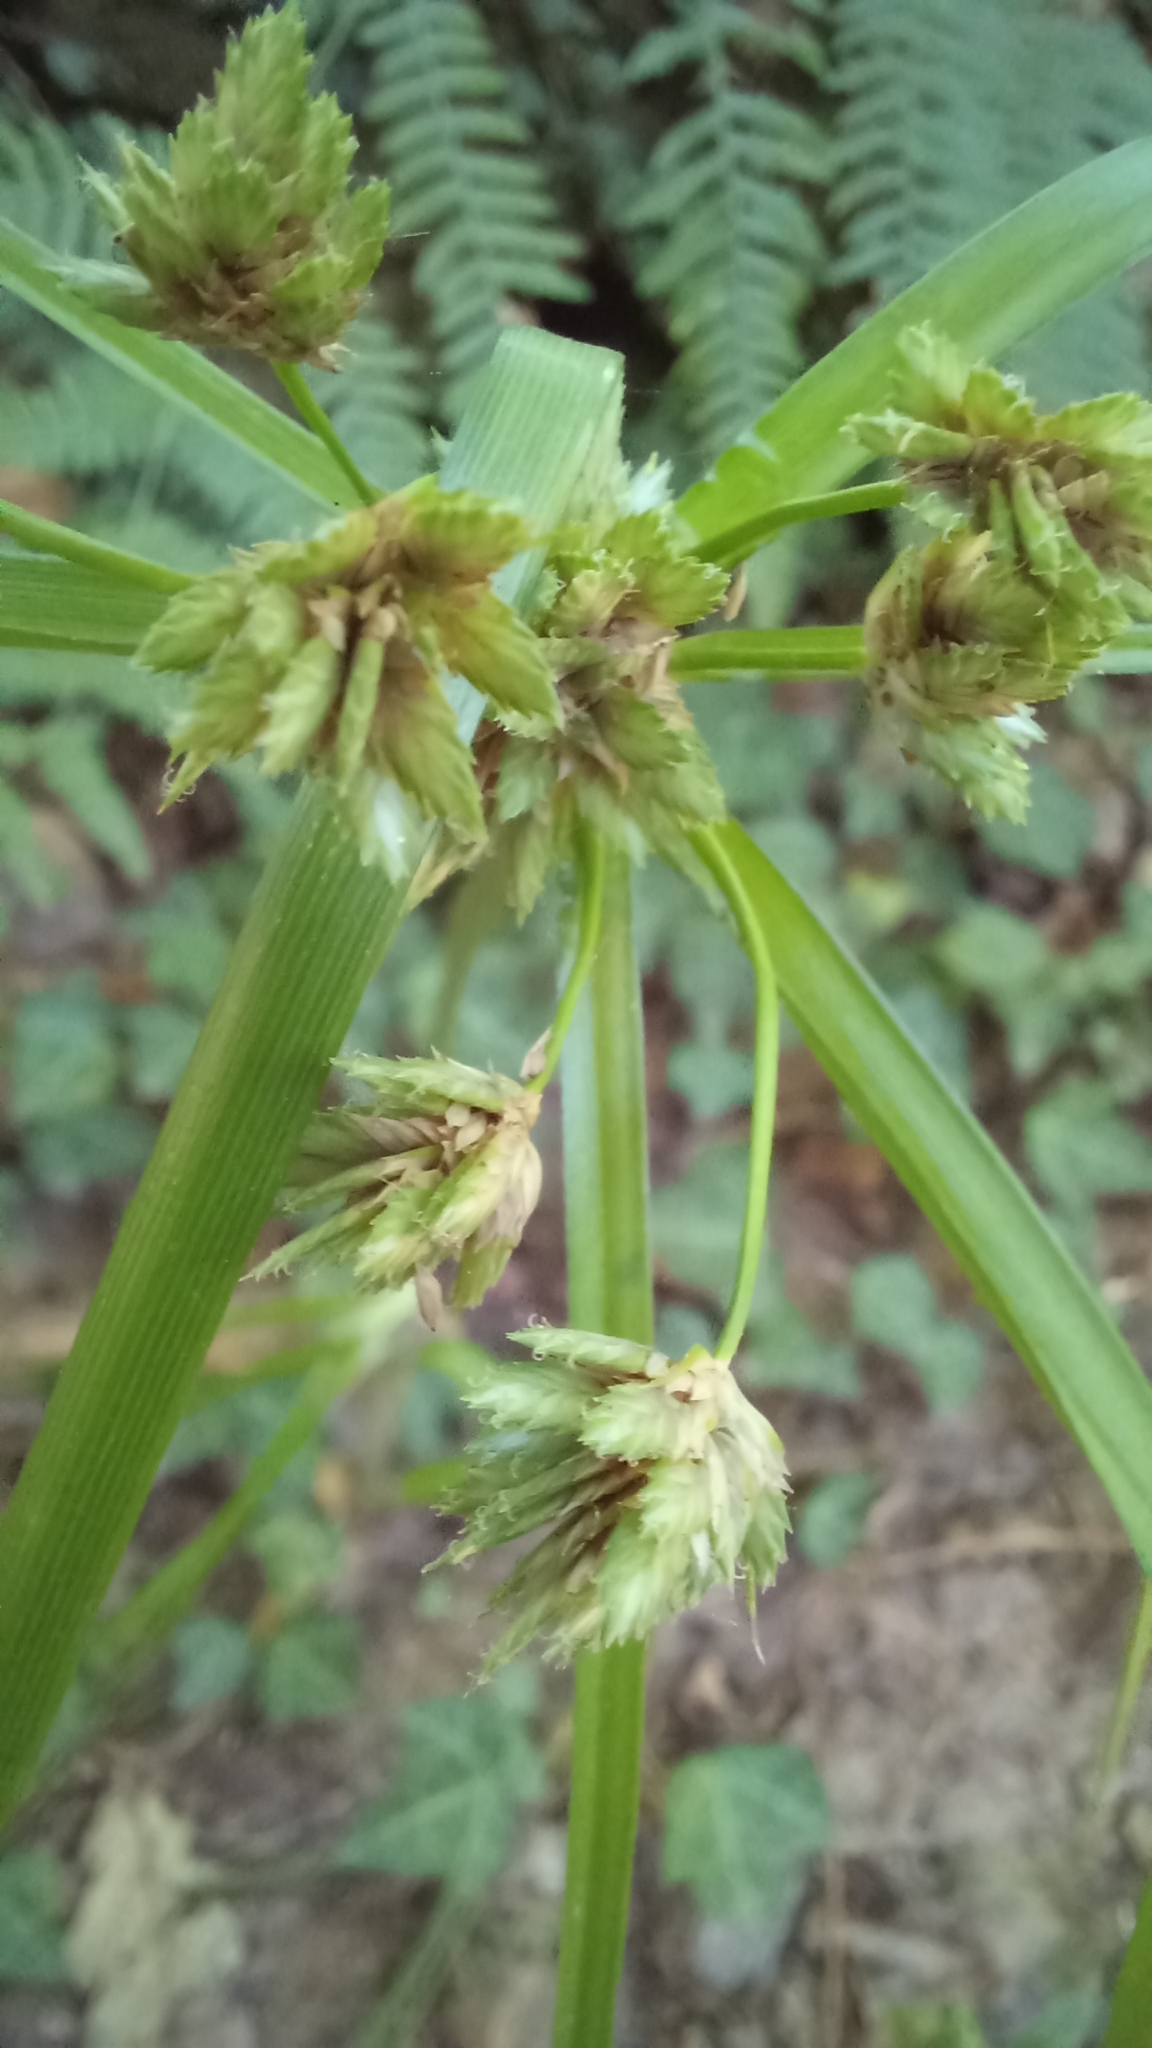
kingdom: Plantae
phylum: Tracheophyta
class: Liliopsida
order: Poales
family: Cyperaceae
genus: Cyperus
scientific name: Cyperus eragrostis
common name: Tall flatsedge
